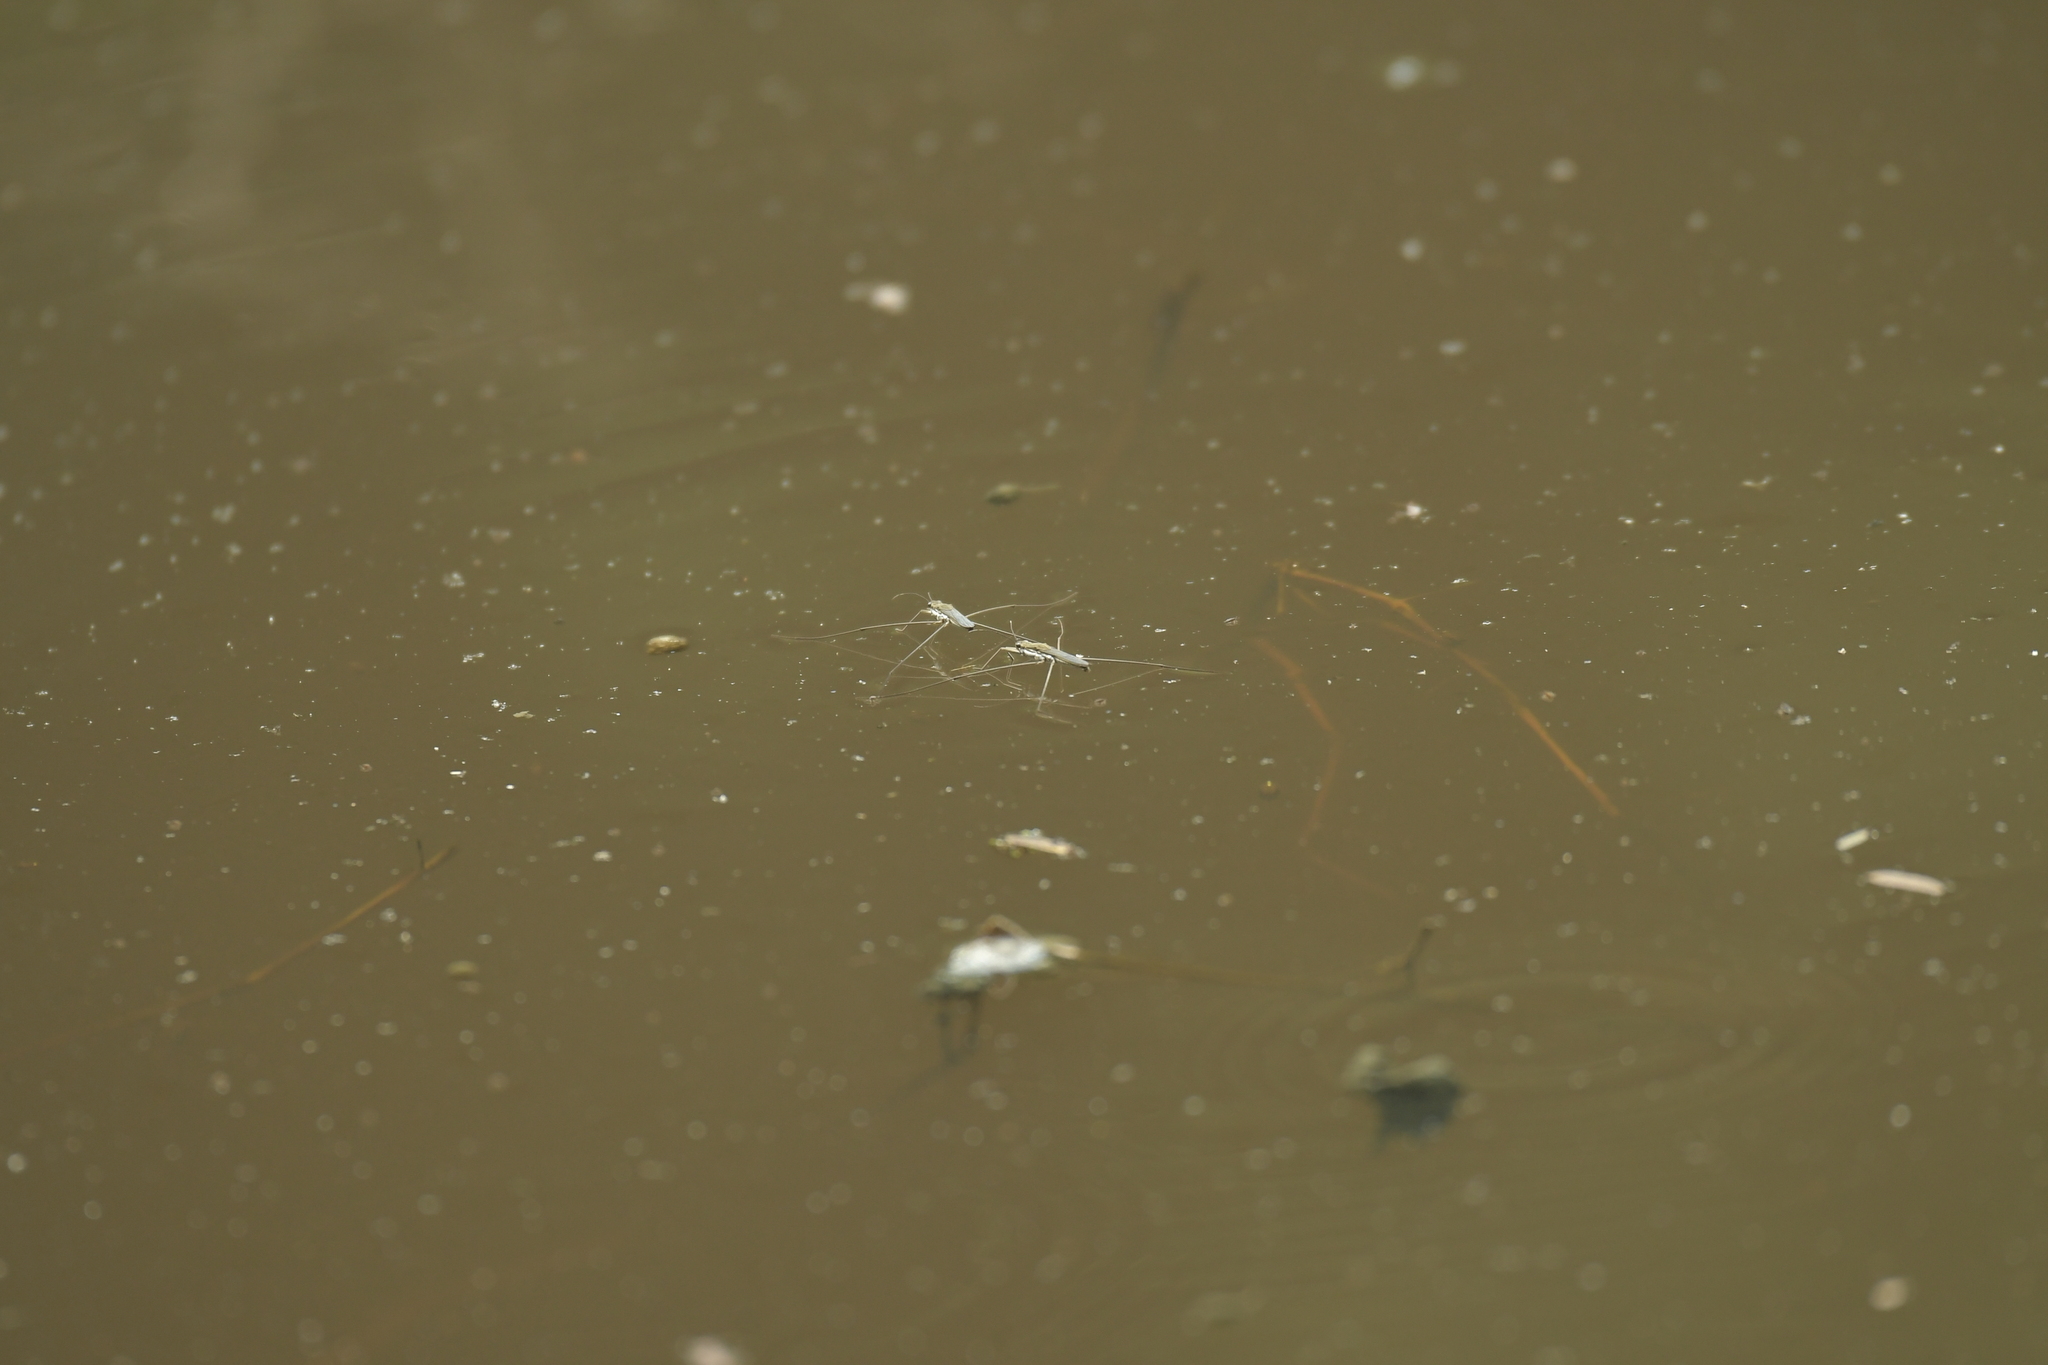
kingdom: Animalia
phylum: Arthropoda
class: Insecta
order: Hemiptera
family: Gerridae
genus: Aquarius
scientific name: Aquarius paludum
